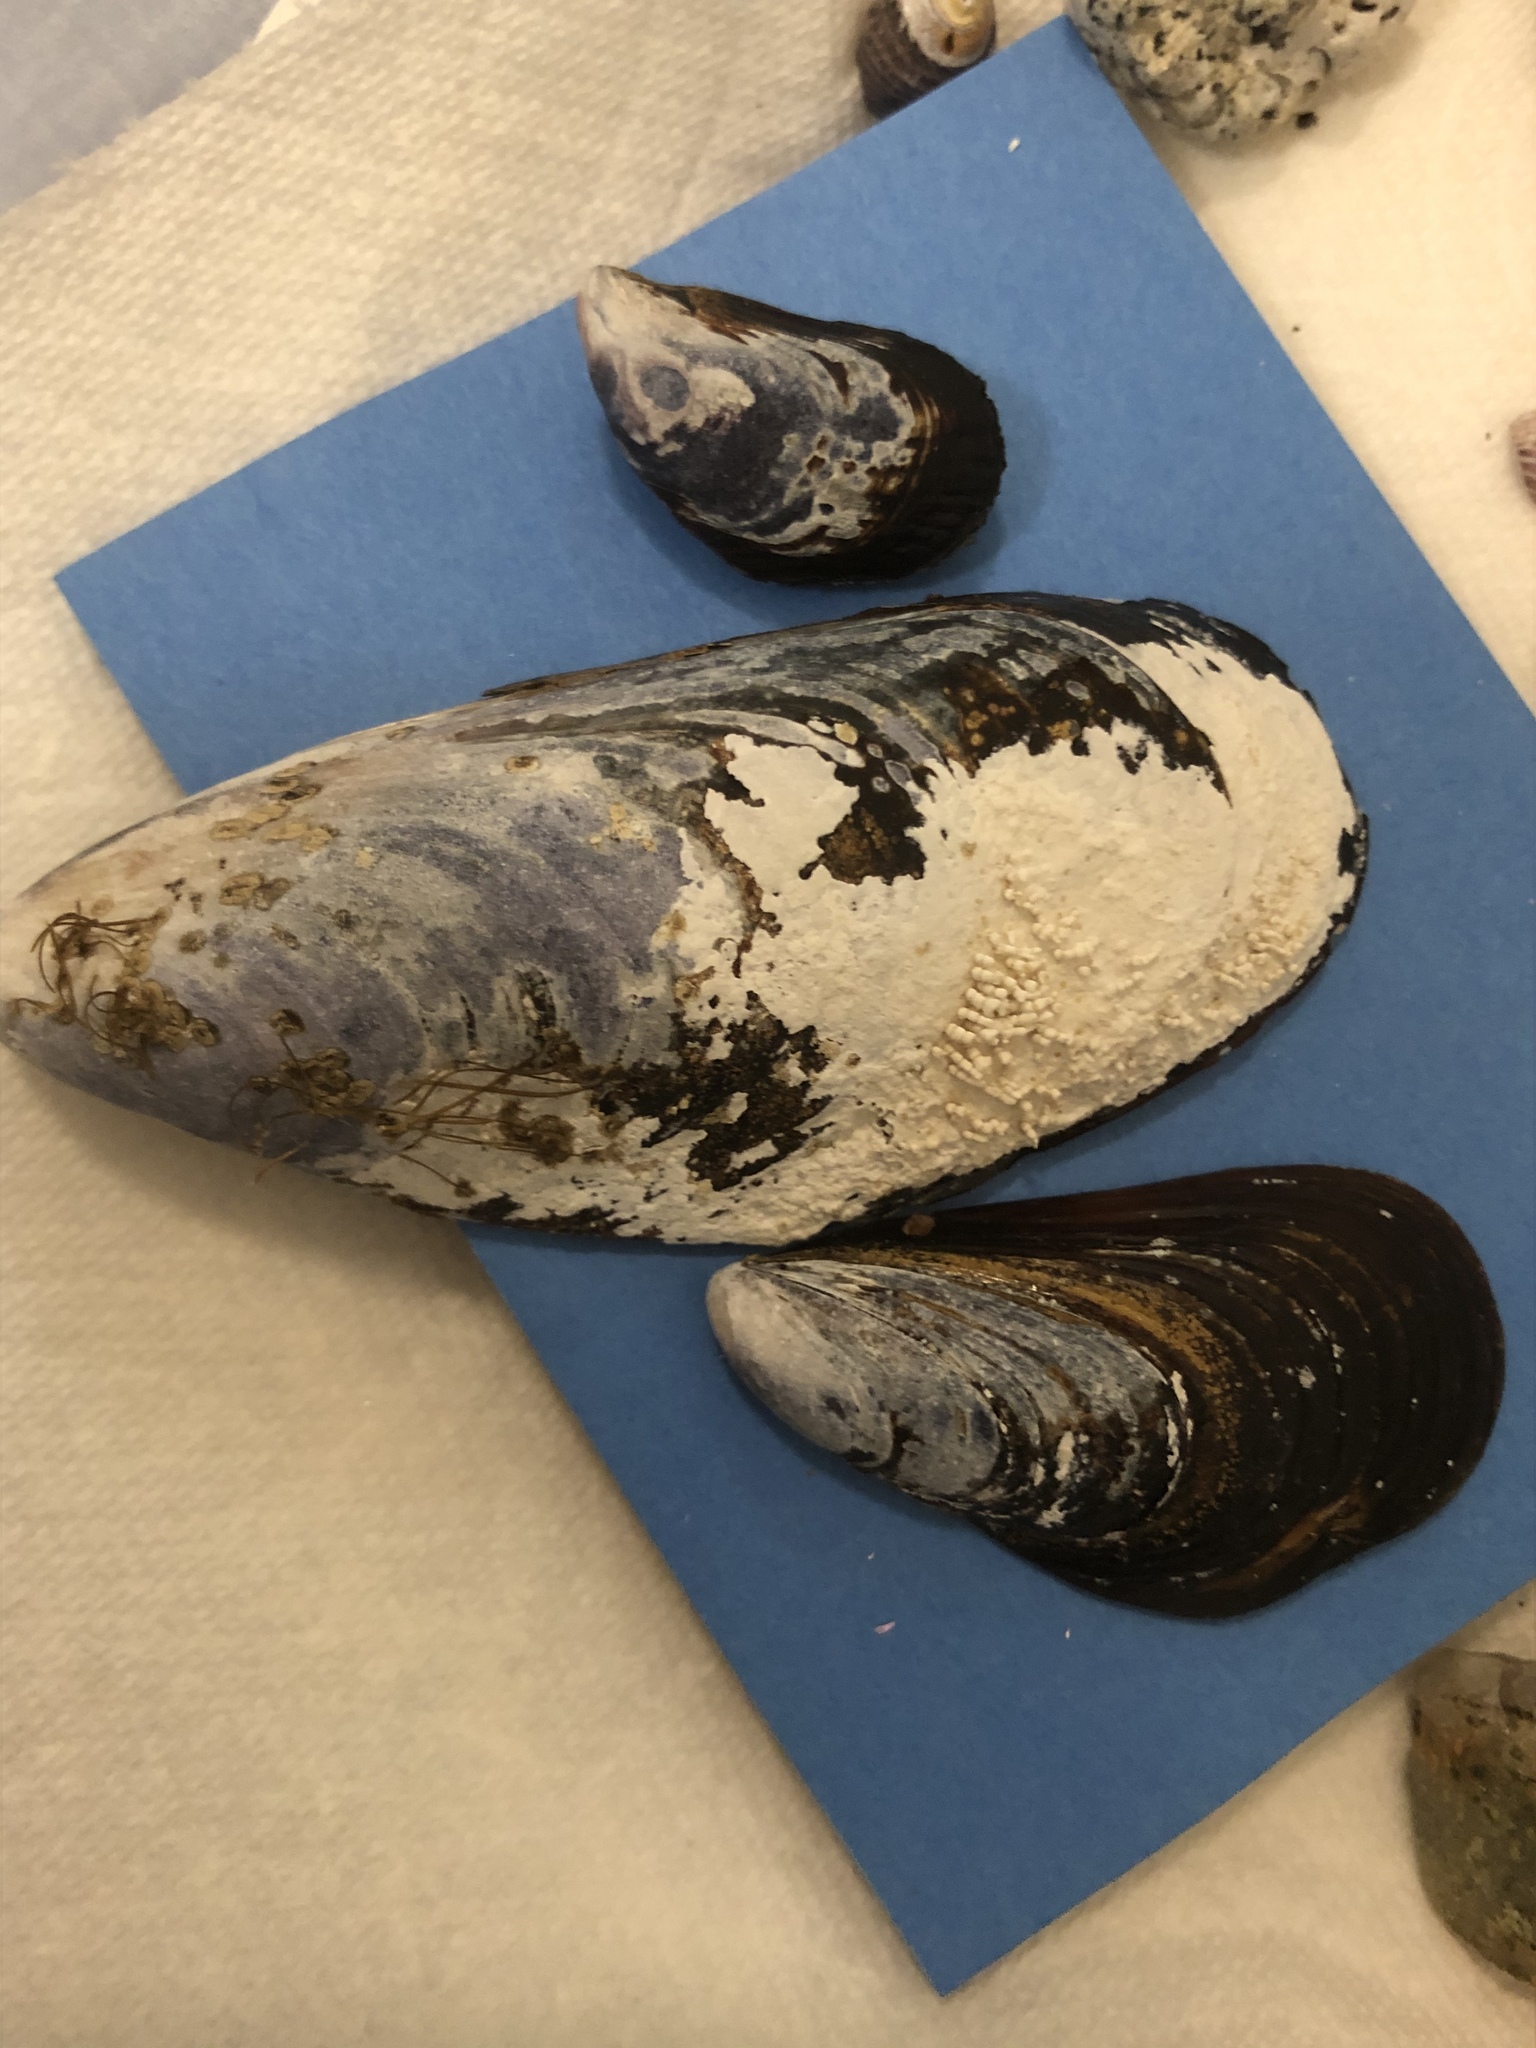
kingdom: Animalia
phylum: Mollusca
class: Bivalvia
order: Mytilida
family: Mytilidae
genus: Mytilus
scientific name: Mytilus californianus
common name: California mussel
